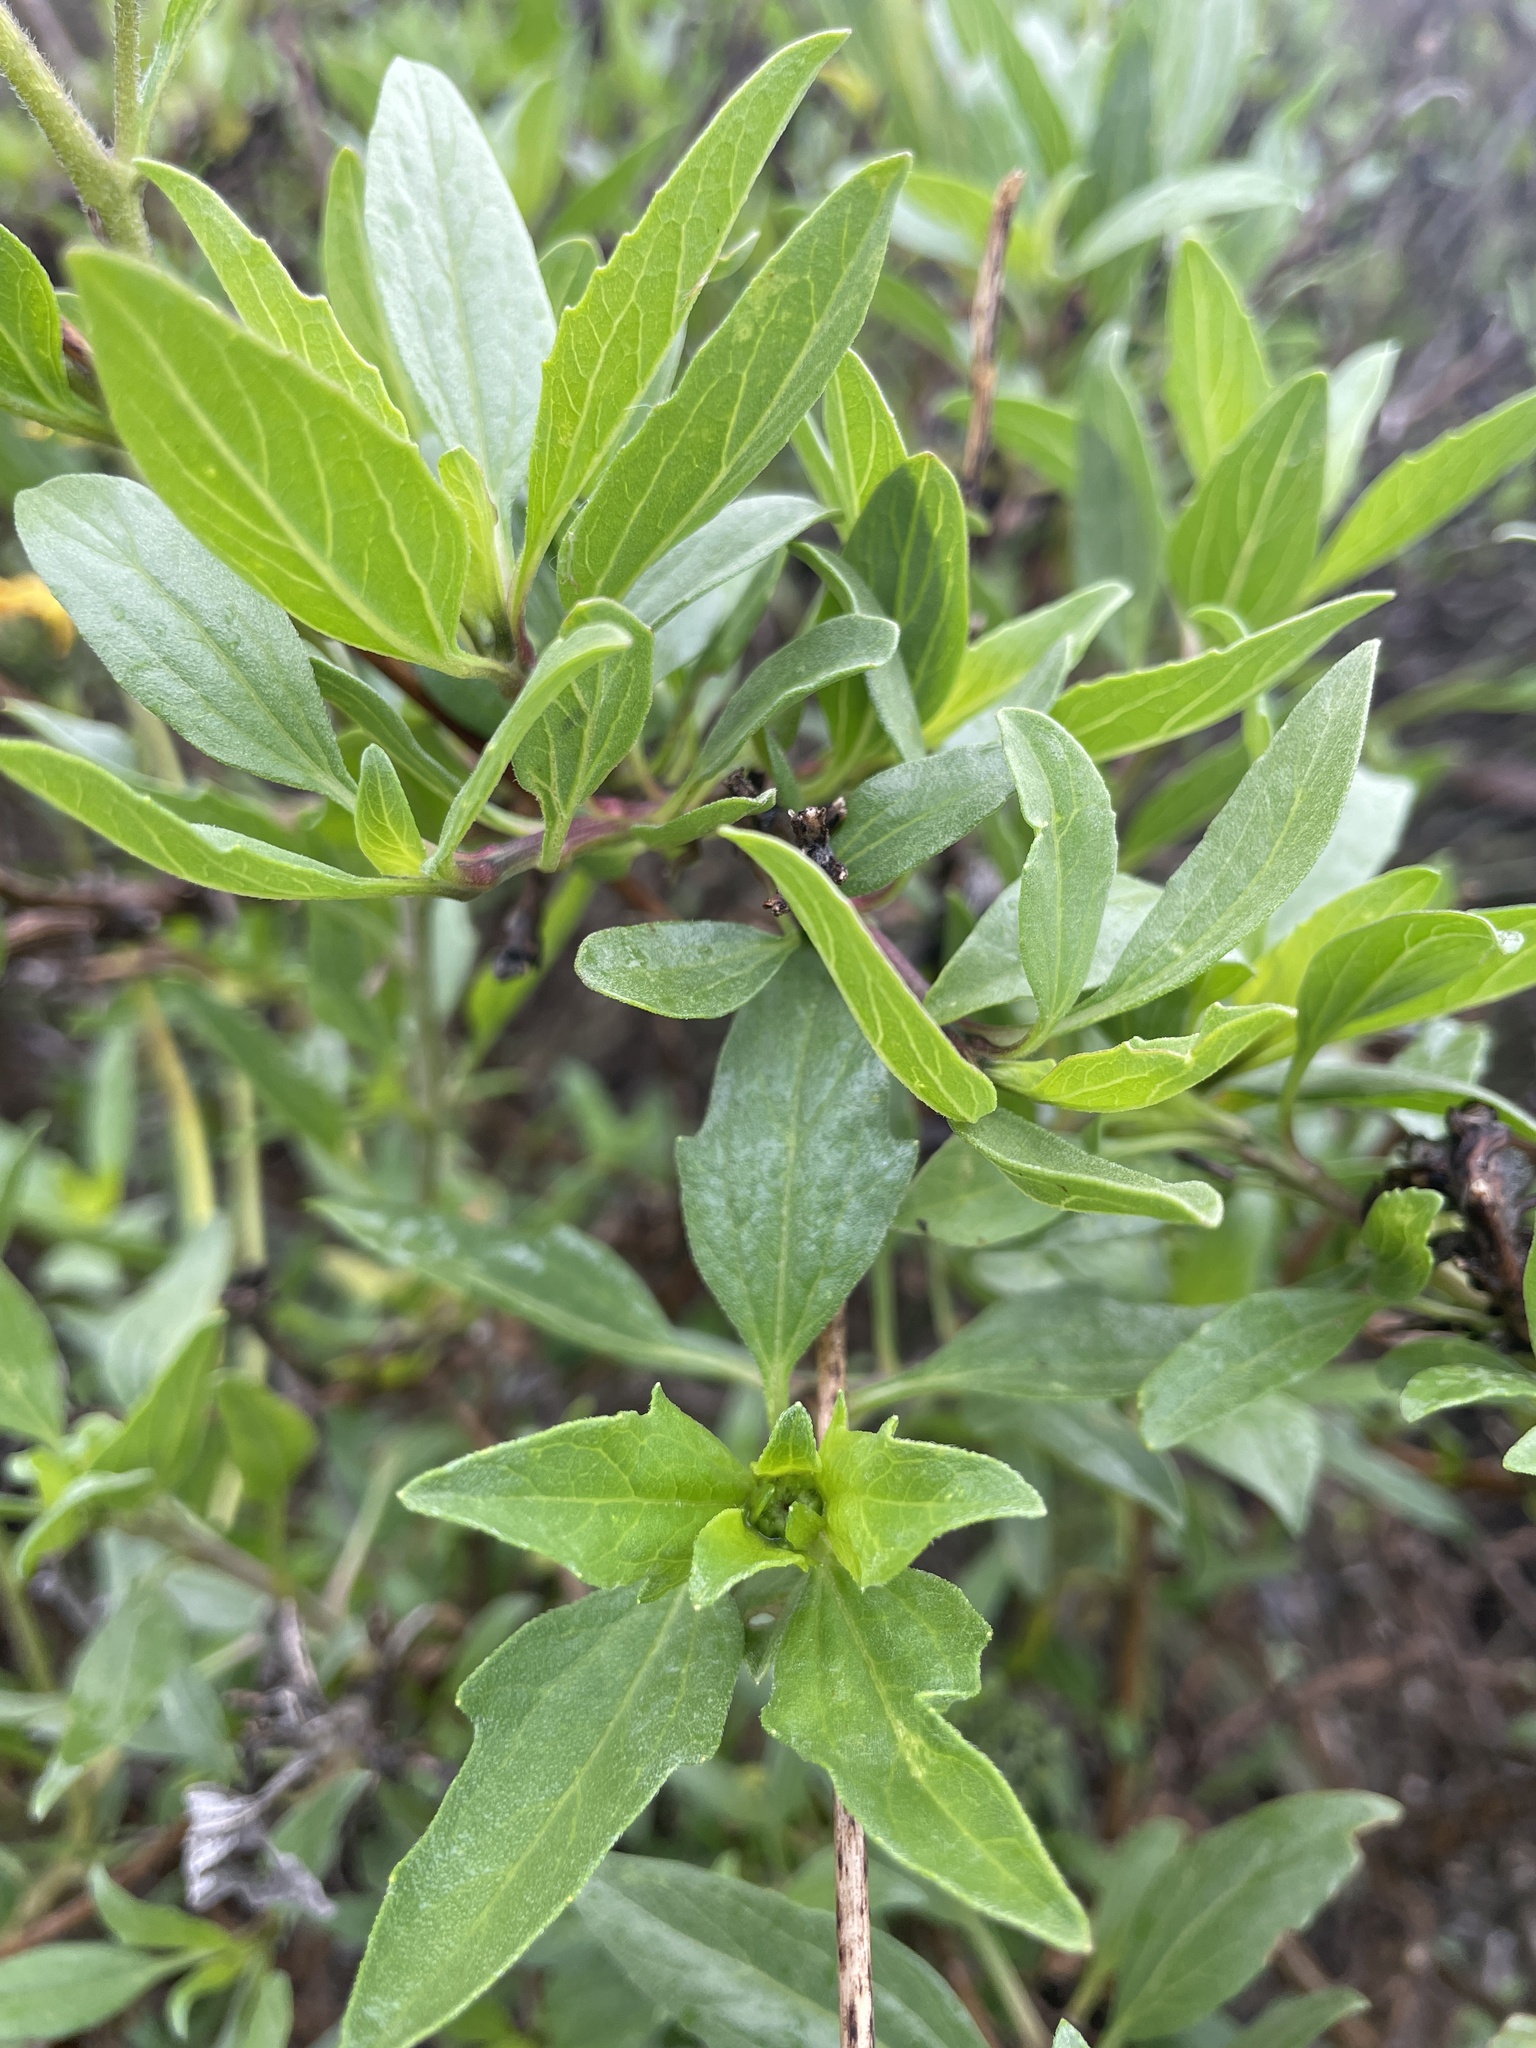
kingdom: Plantae
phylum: Tracheophyta
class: Magnoliopsida
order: Asterales
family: Asteraceae
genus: Encelia
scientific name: Encelia californica
